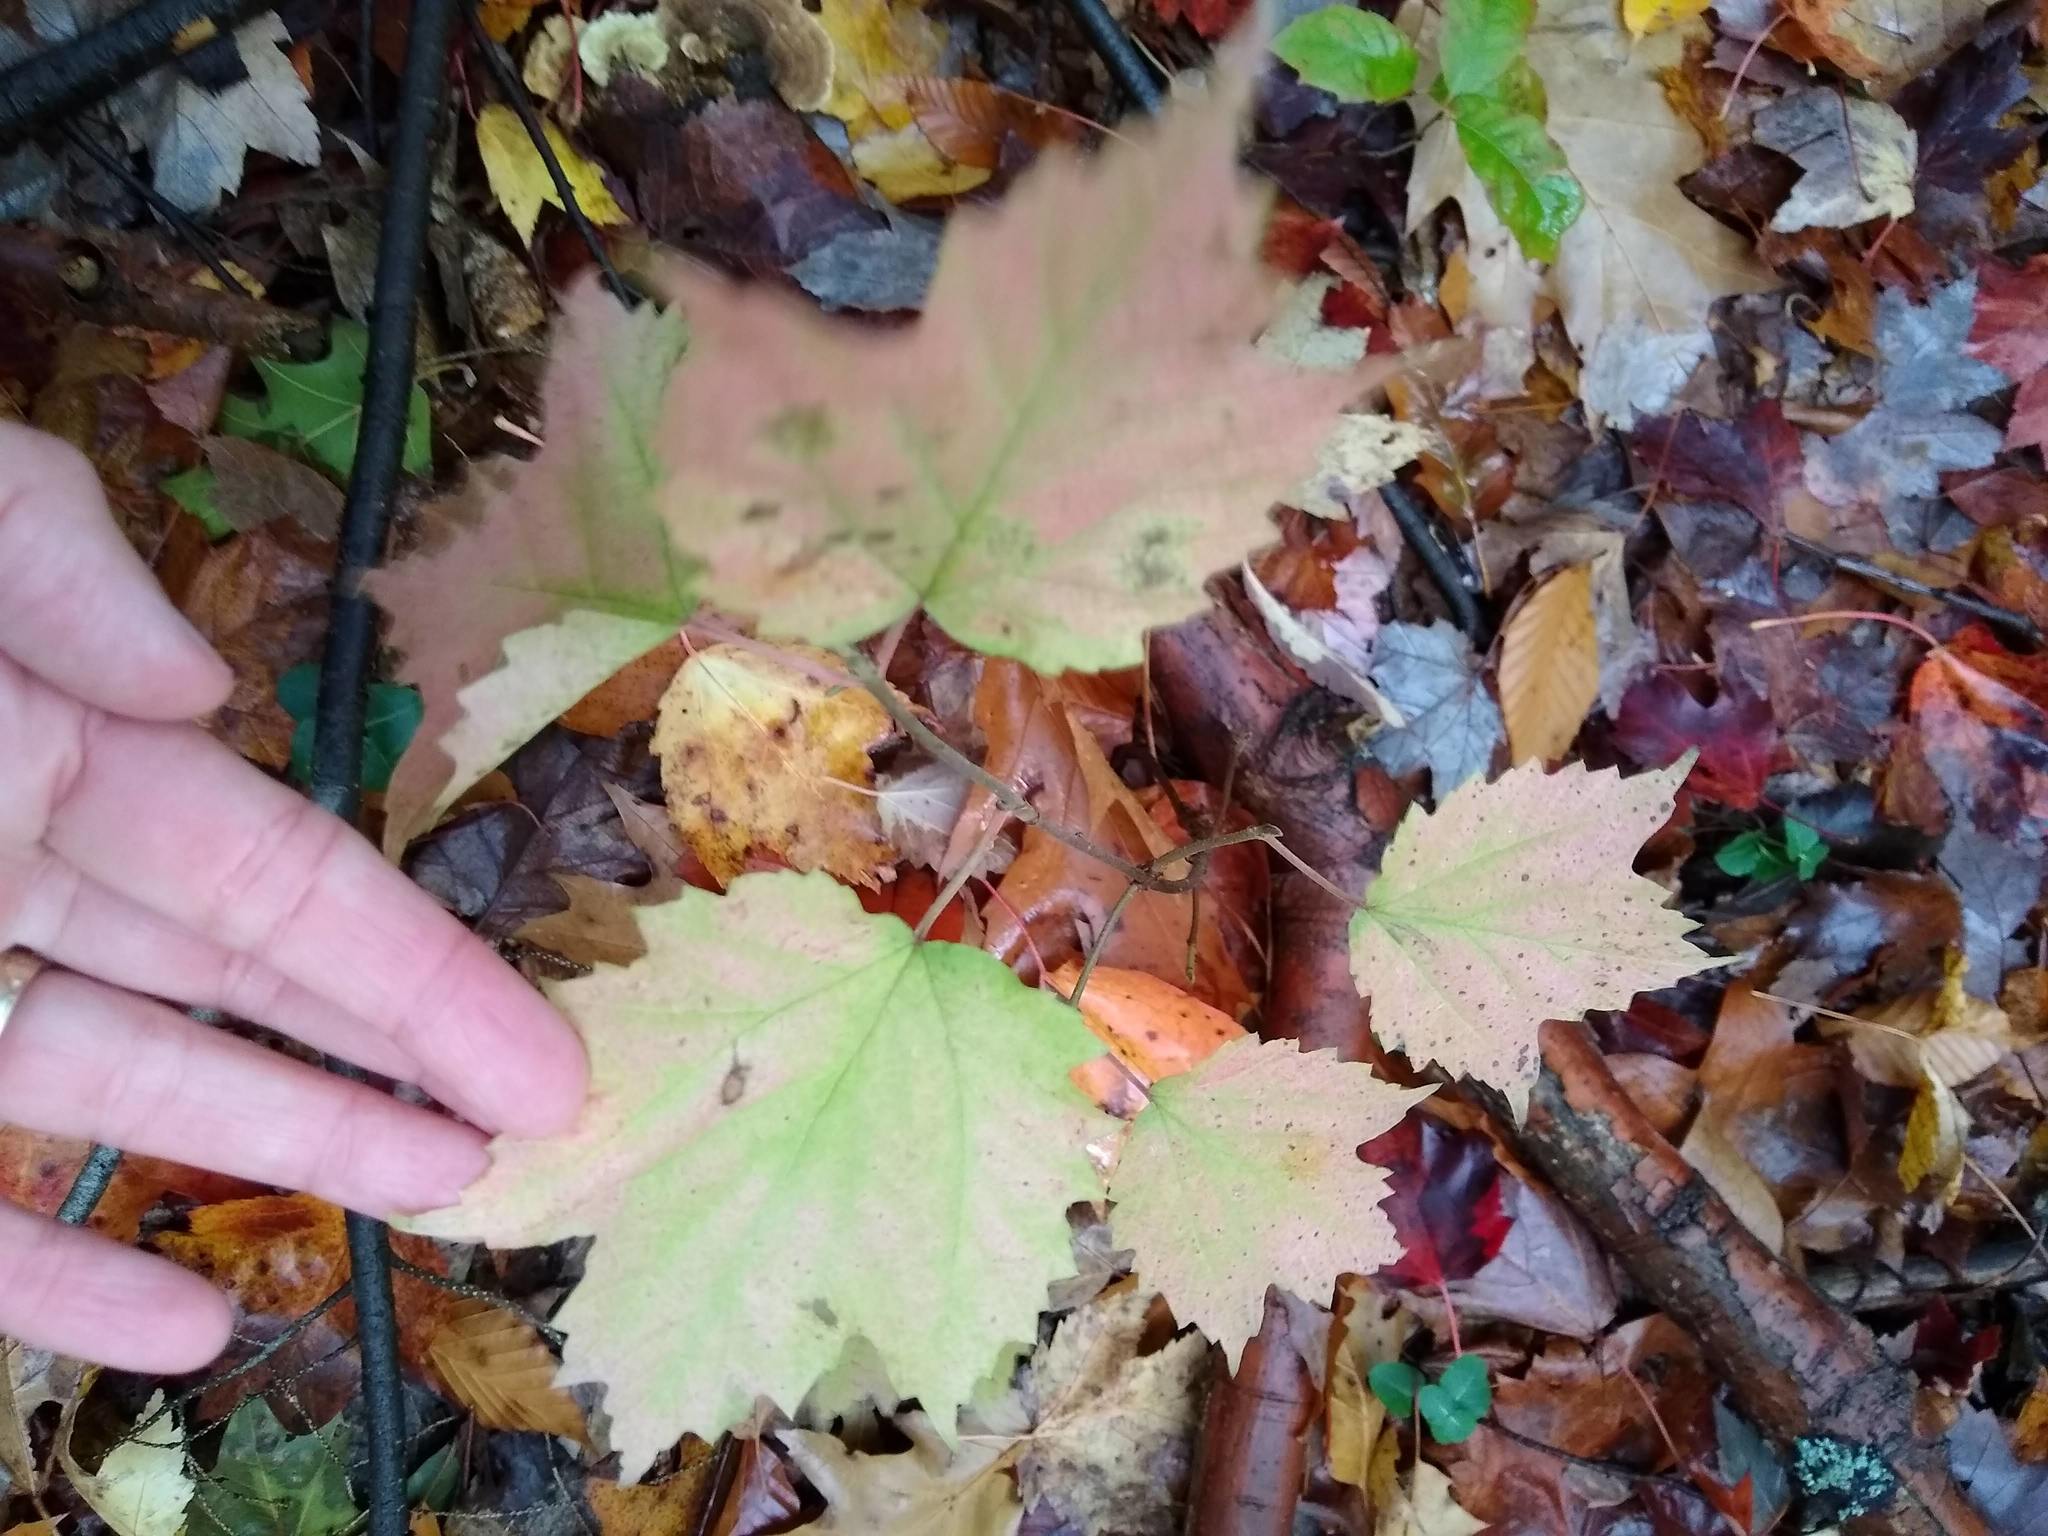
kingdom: Plantae
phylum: Tracheophyta
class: Magnoliopsida
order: Dipsacales
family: Viburnaceae
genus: Viburnum
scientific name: Viburnum acerifolium
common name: Dockmackie
